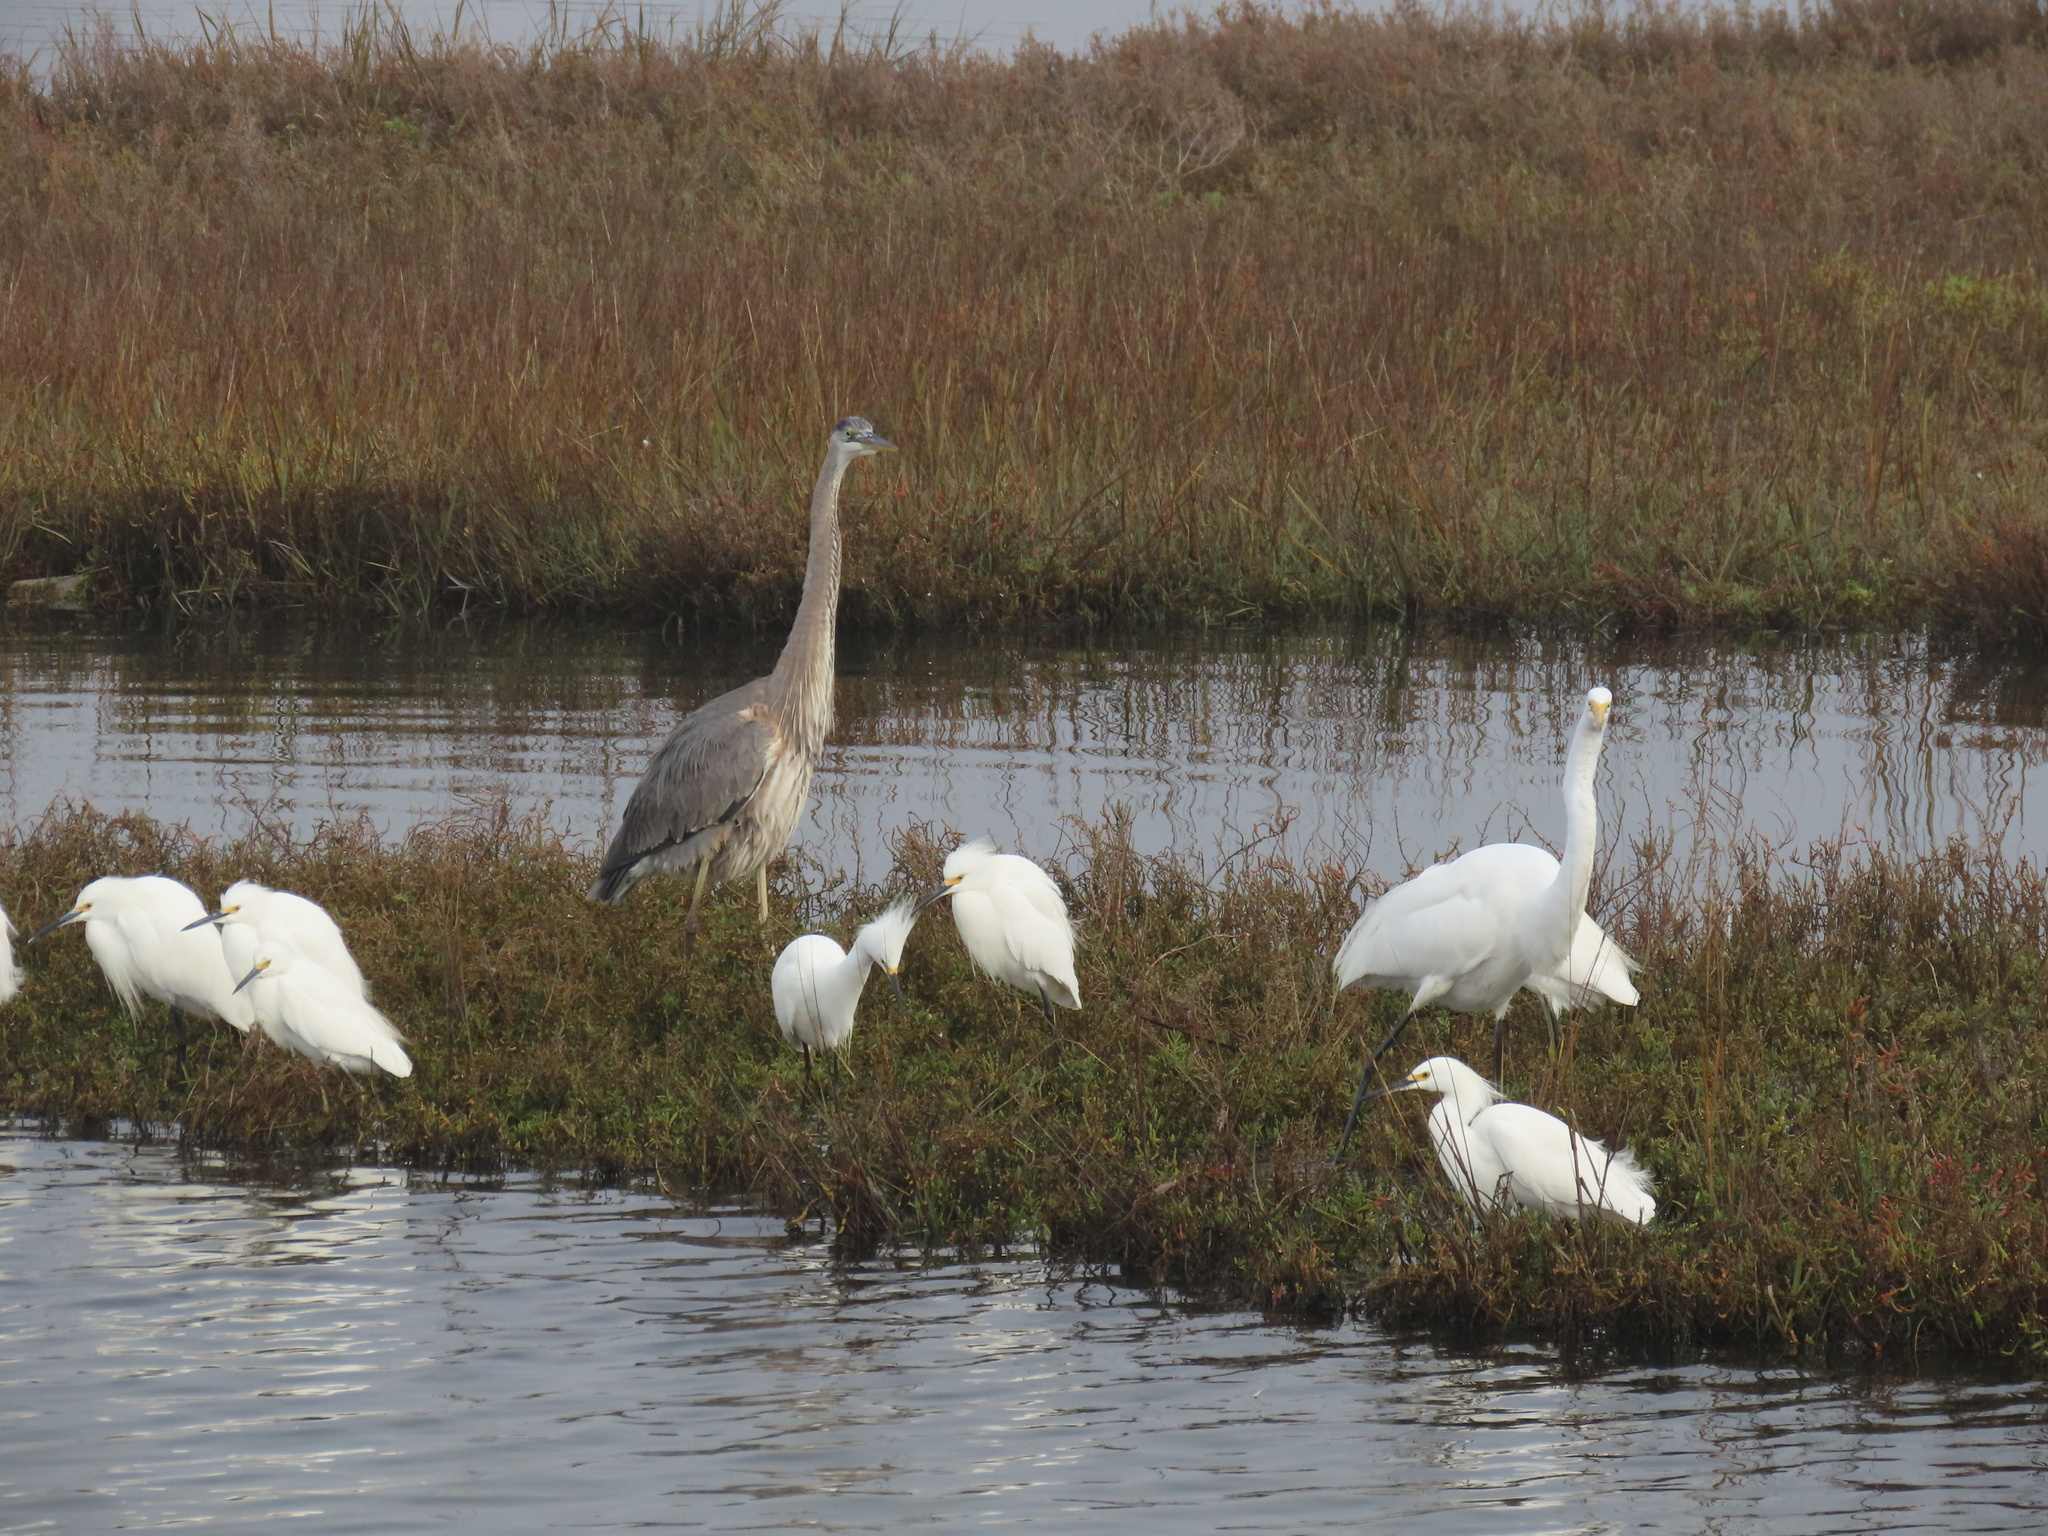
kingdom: Animalia
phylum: Chordata
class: Aves
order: Pelecaniformes
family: Ardeidae
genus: Egretta
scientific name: Egretta thula
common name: Snowy egret
